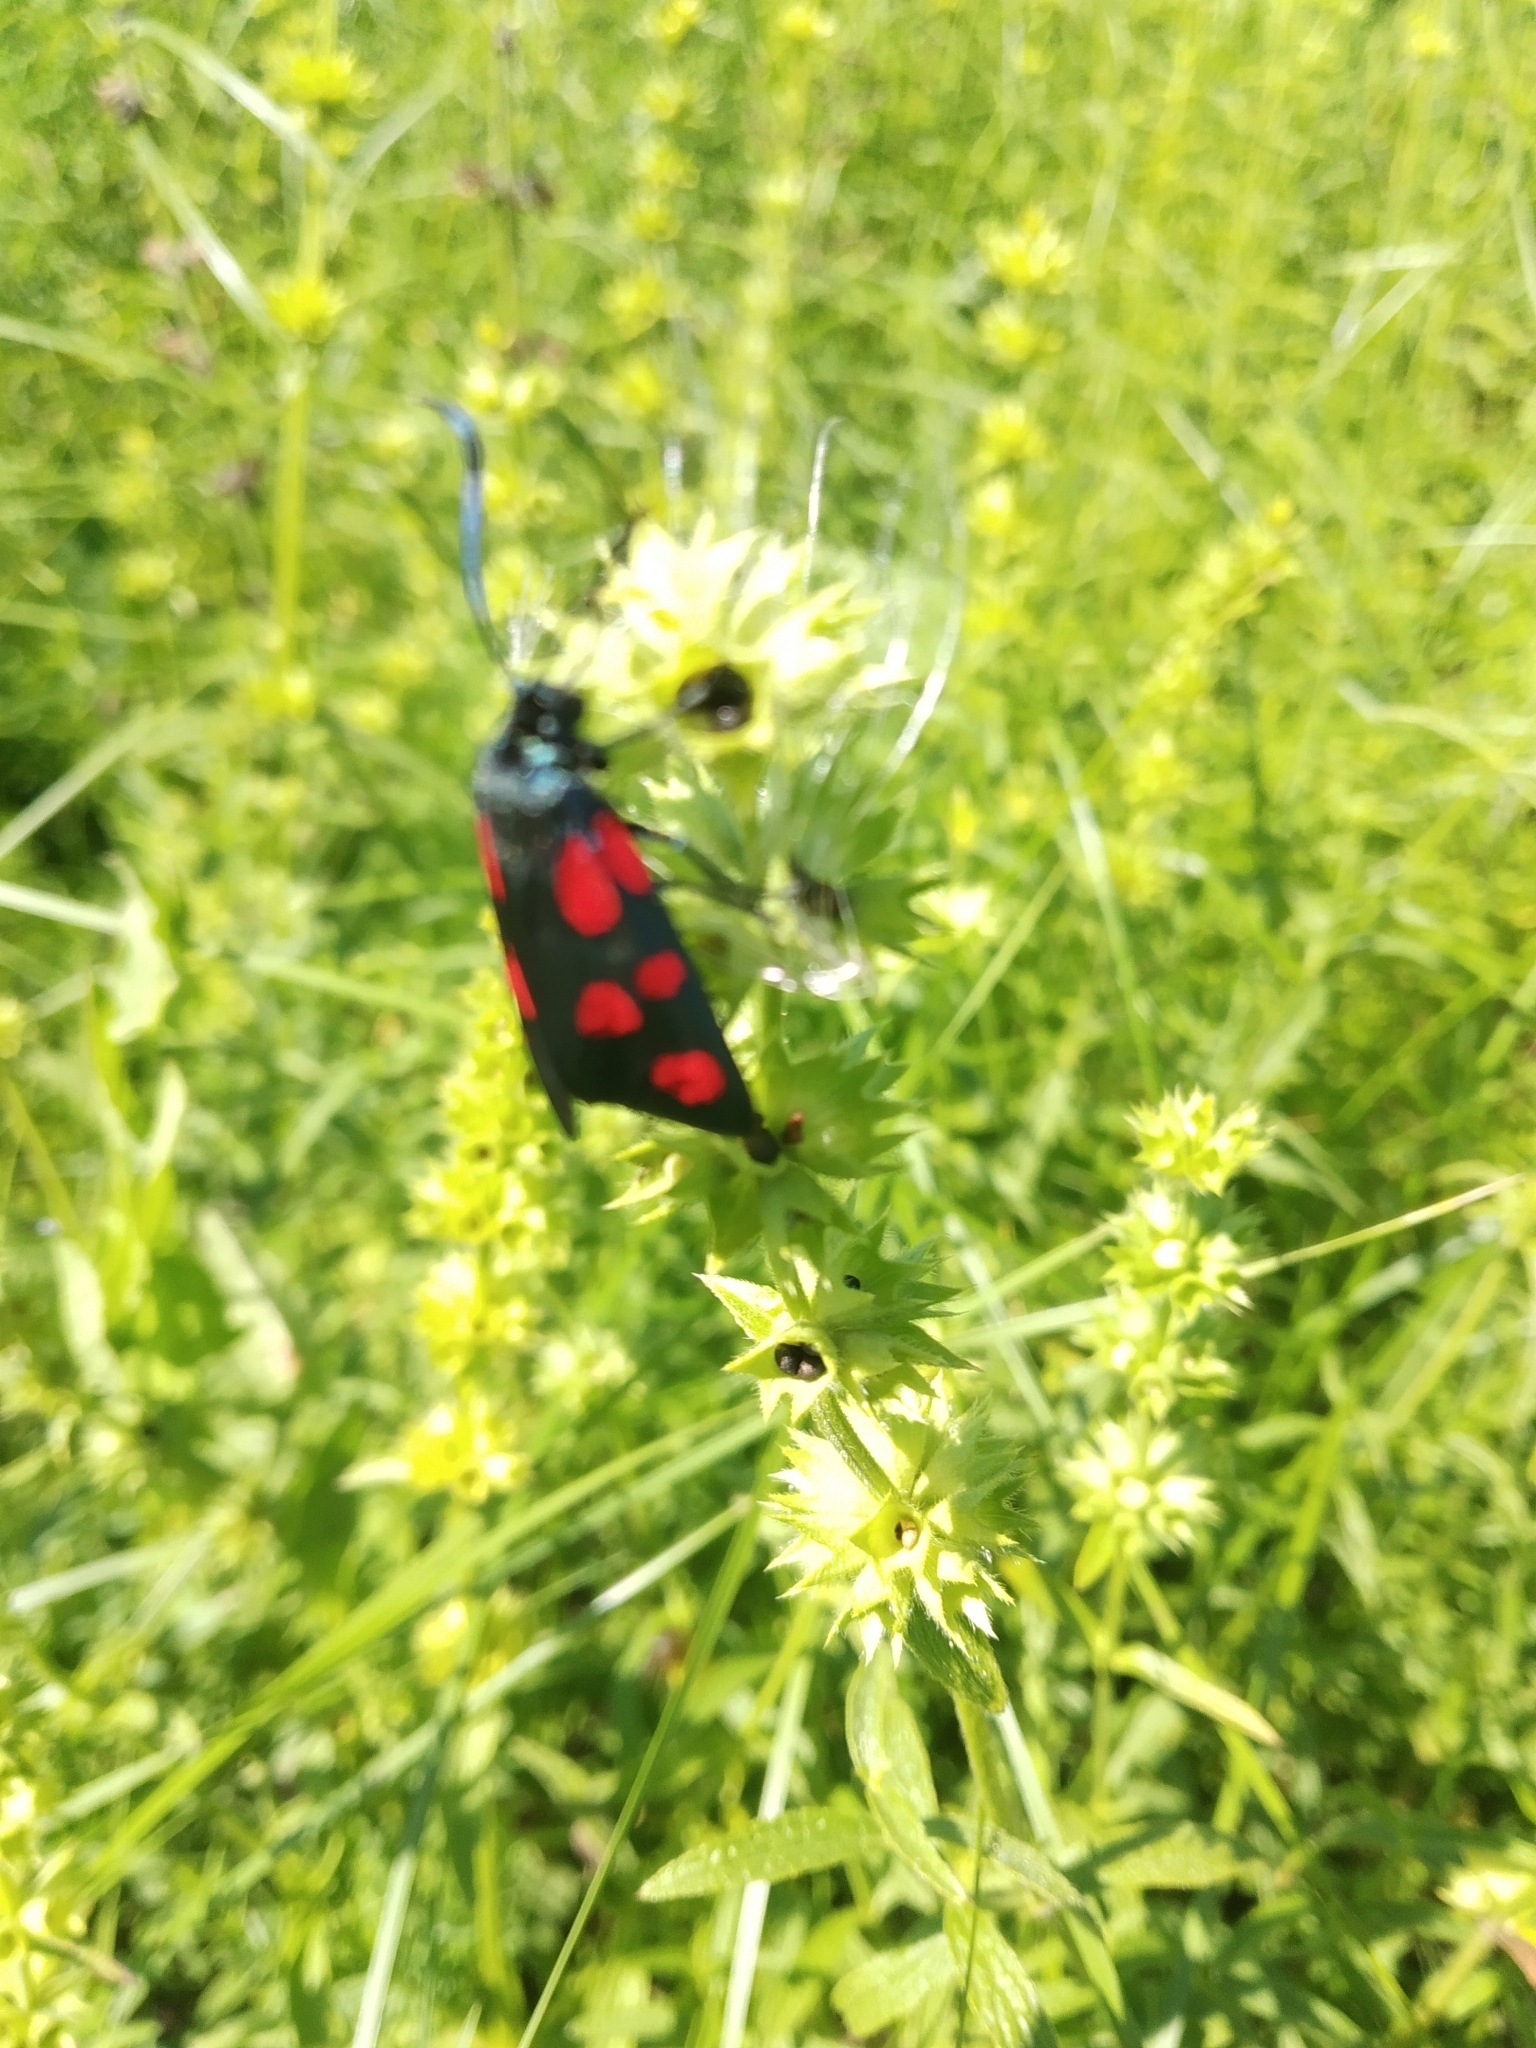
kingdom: Animalia
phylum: Arthropoda
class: Insecta
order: Lepidoptera
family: Zygaenidae
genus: Zygaena
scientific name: Zygaena lonicerae
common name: Narrow-bordered five-spot burnet
